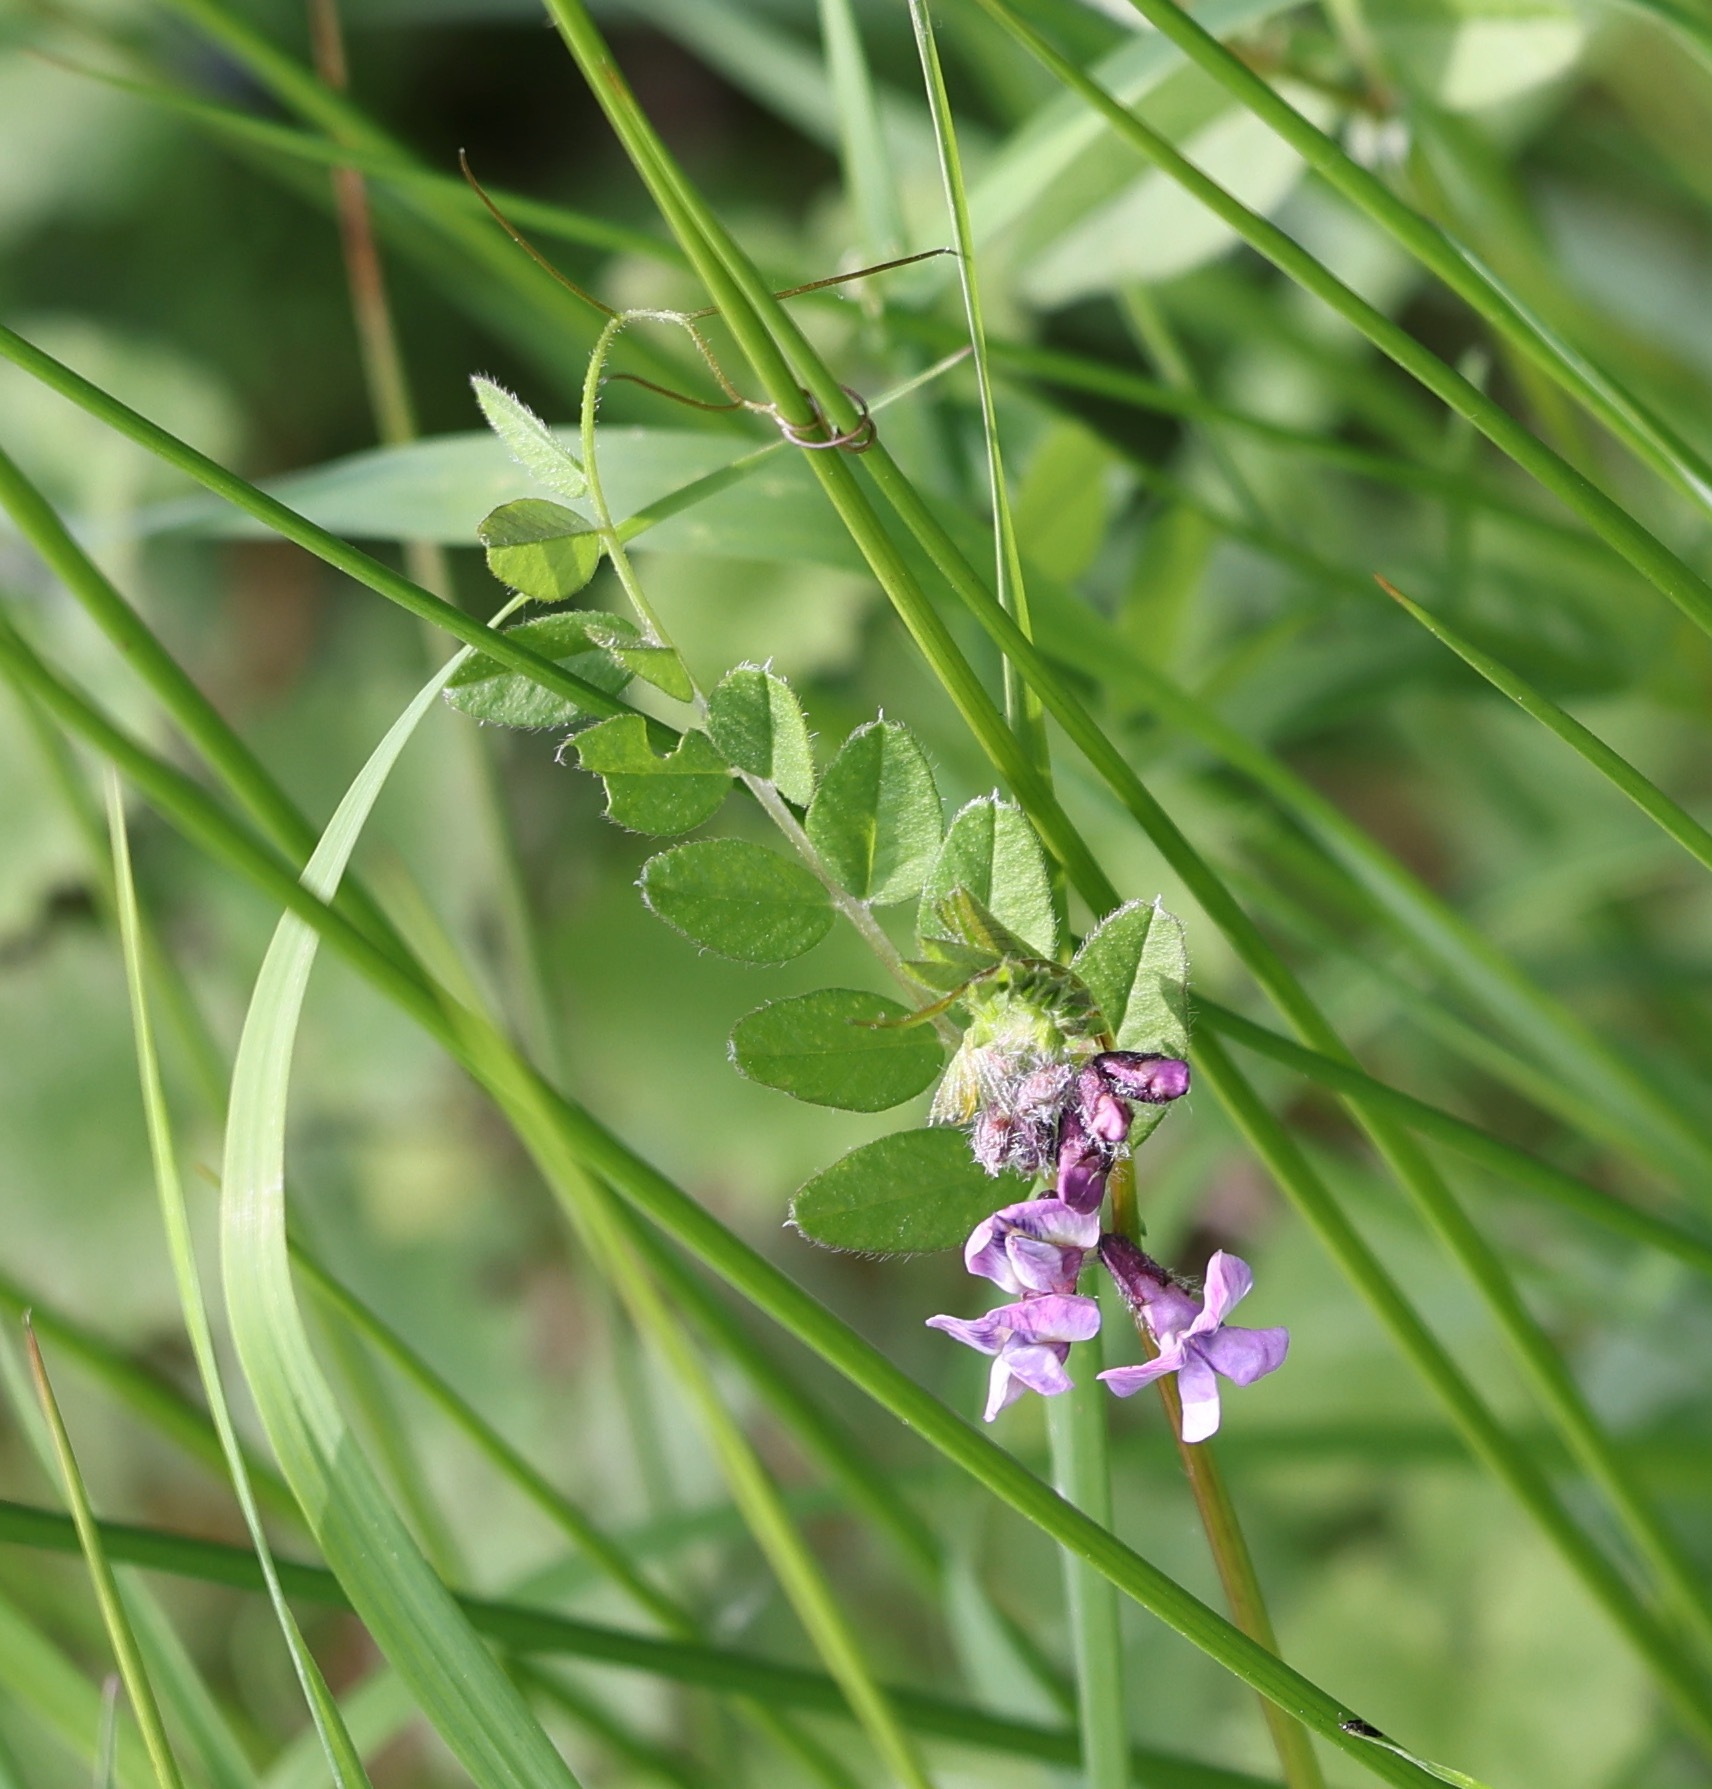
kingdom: Plantae
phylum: Tracheophyta
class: Magnoliopsida
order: Fabales
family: Fabaceae
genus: Vicia
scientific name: Vicia sepium
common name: Bush vetch
